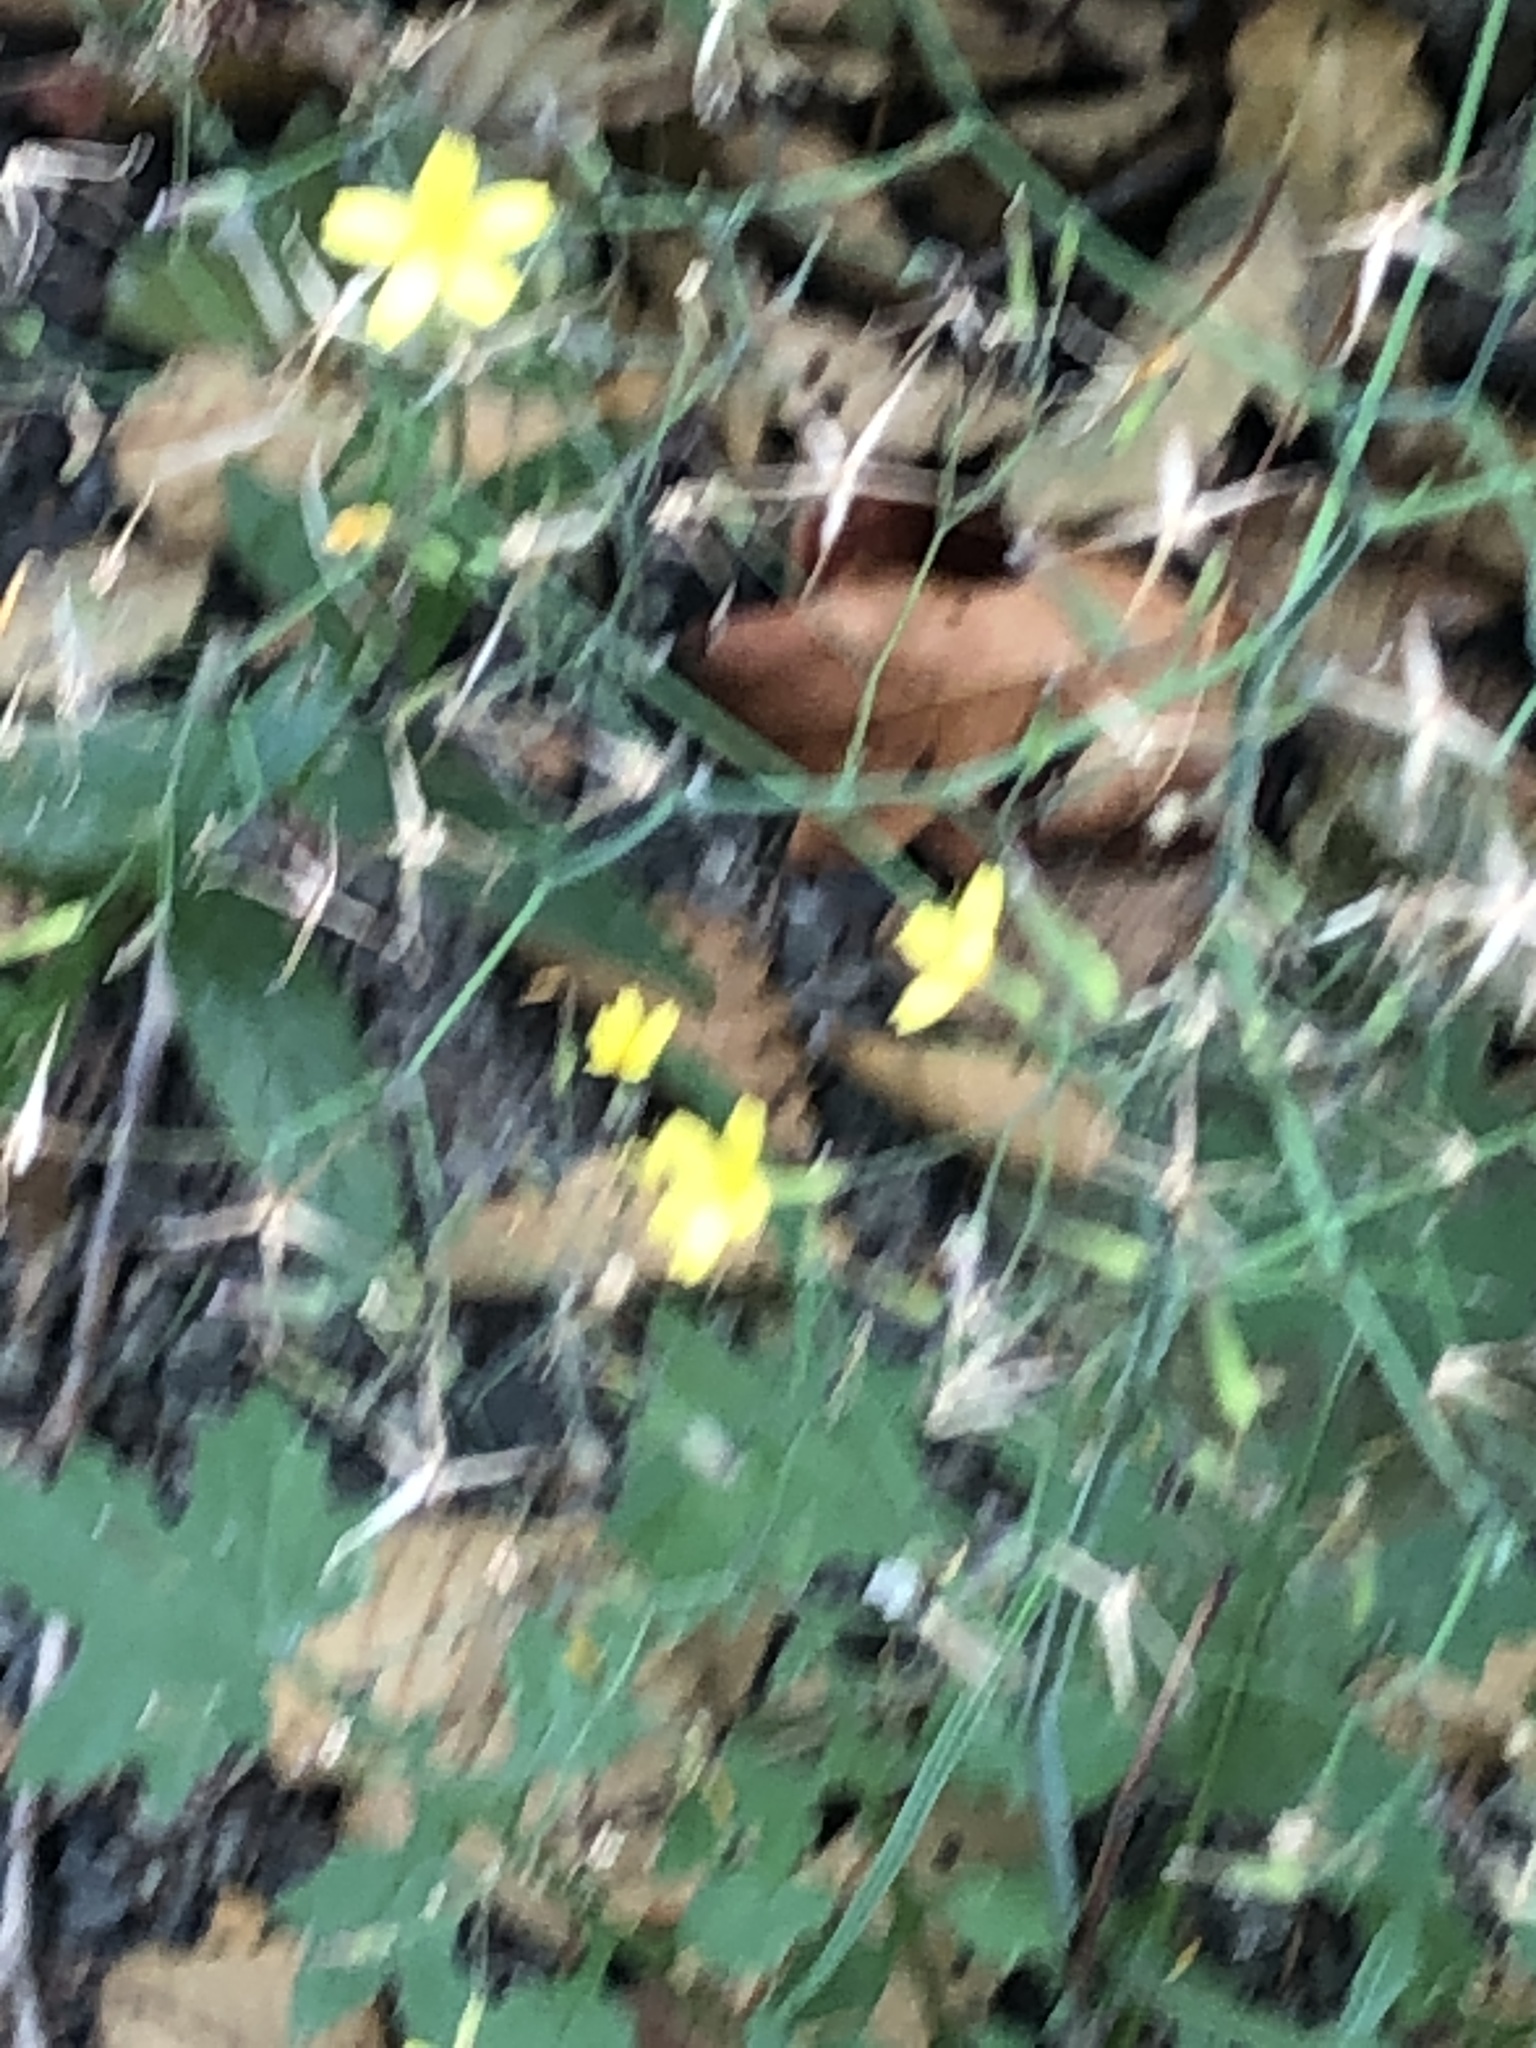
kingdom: Plantae
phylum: Tracheophyta
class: Magnoliopsida
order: Asterales
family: Asteraceae
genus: Mycelis
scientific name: Mycelis muralis
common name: Wall lettuce
